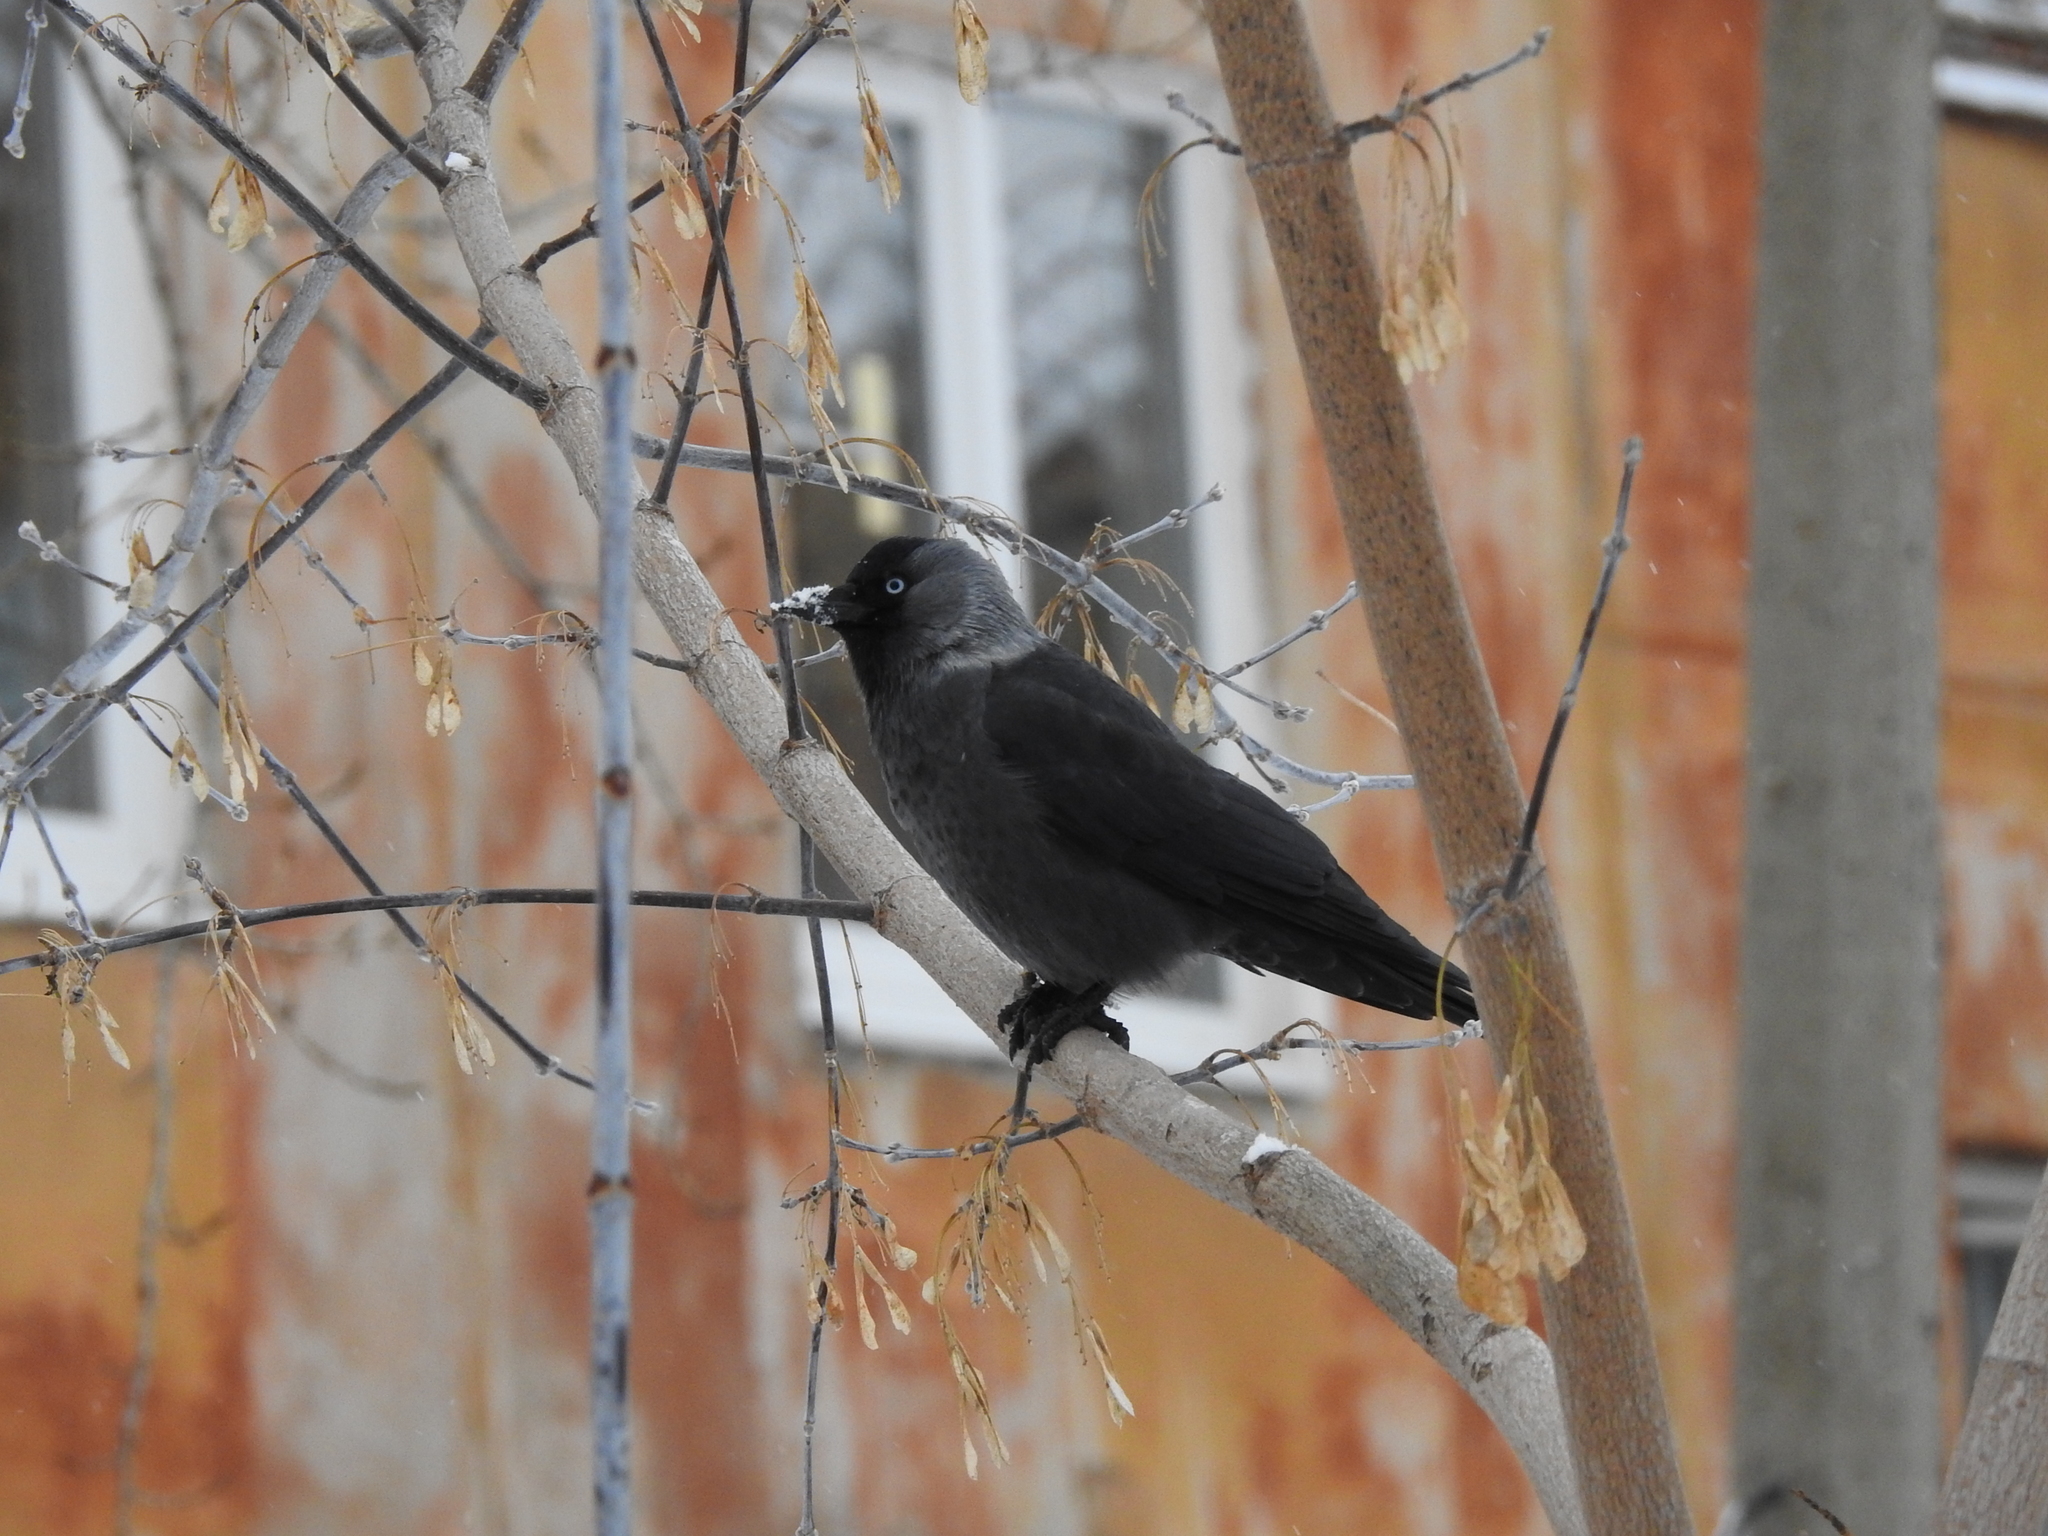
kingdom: Animalia
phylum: Chordata
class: Aves
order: Passeriformes
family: Corvidae
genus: Coloeus
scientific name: Coloeus monedula
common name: Western jackdaw
